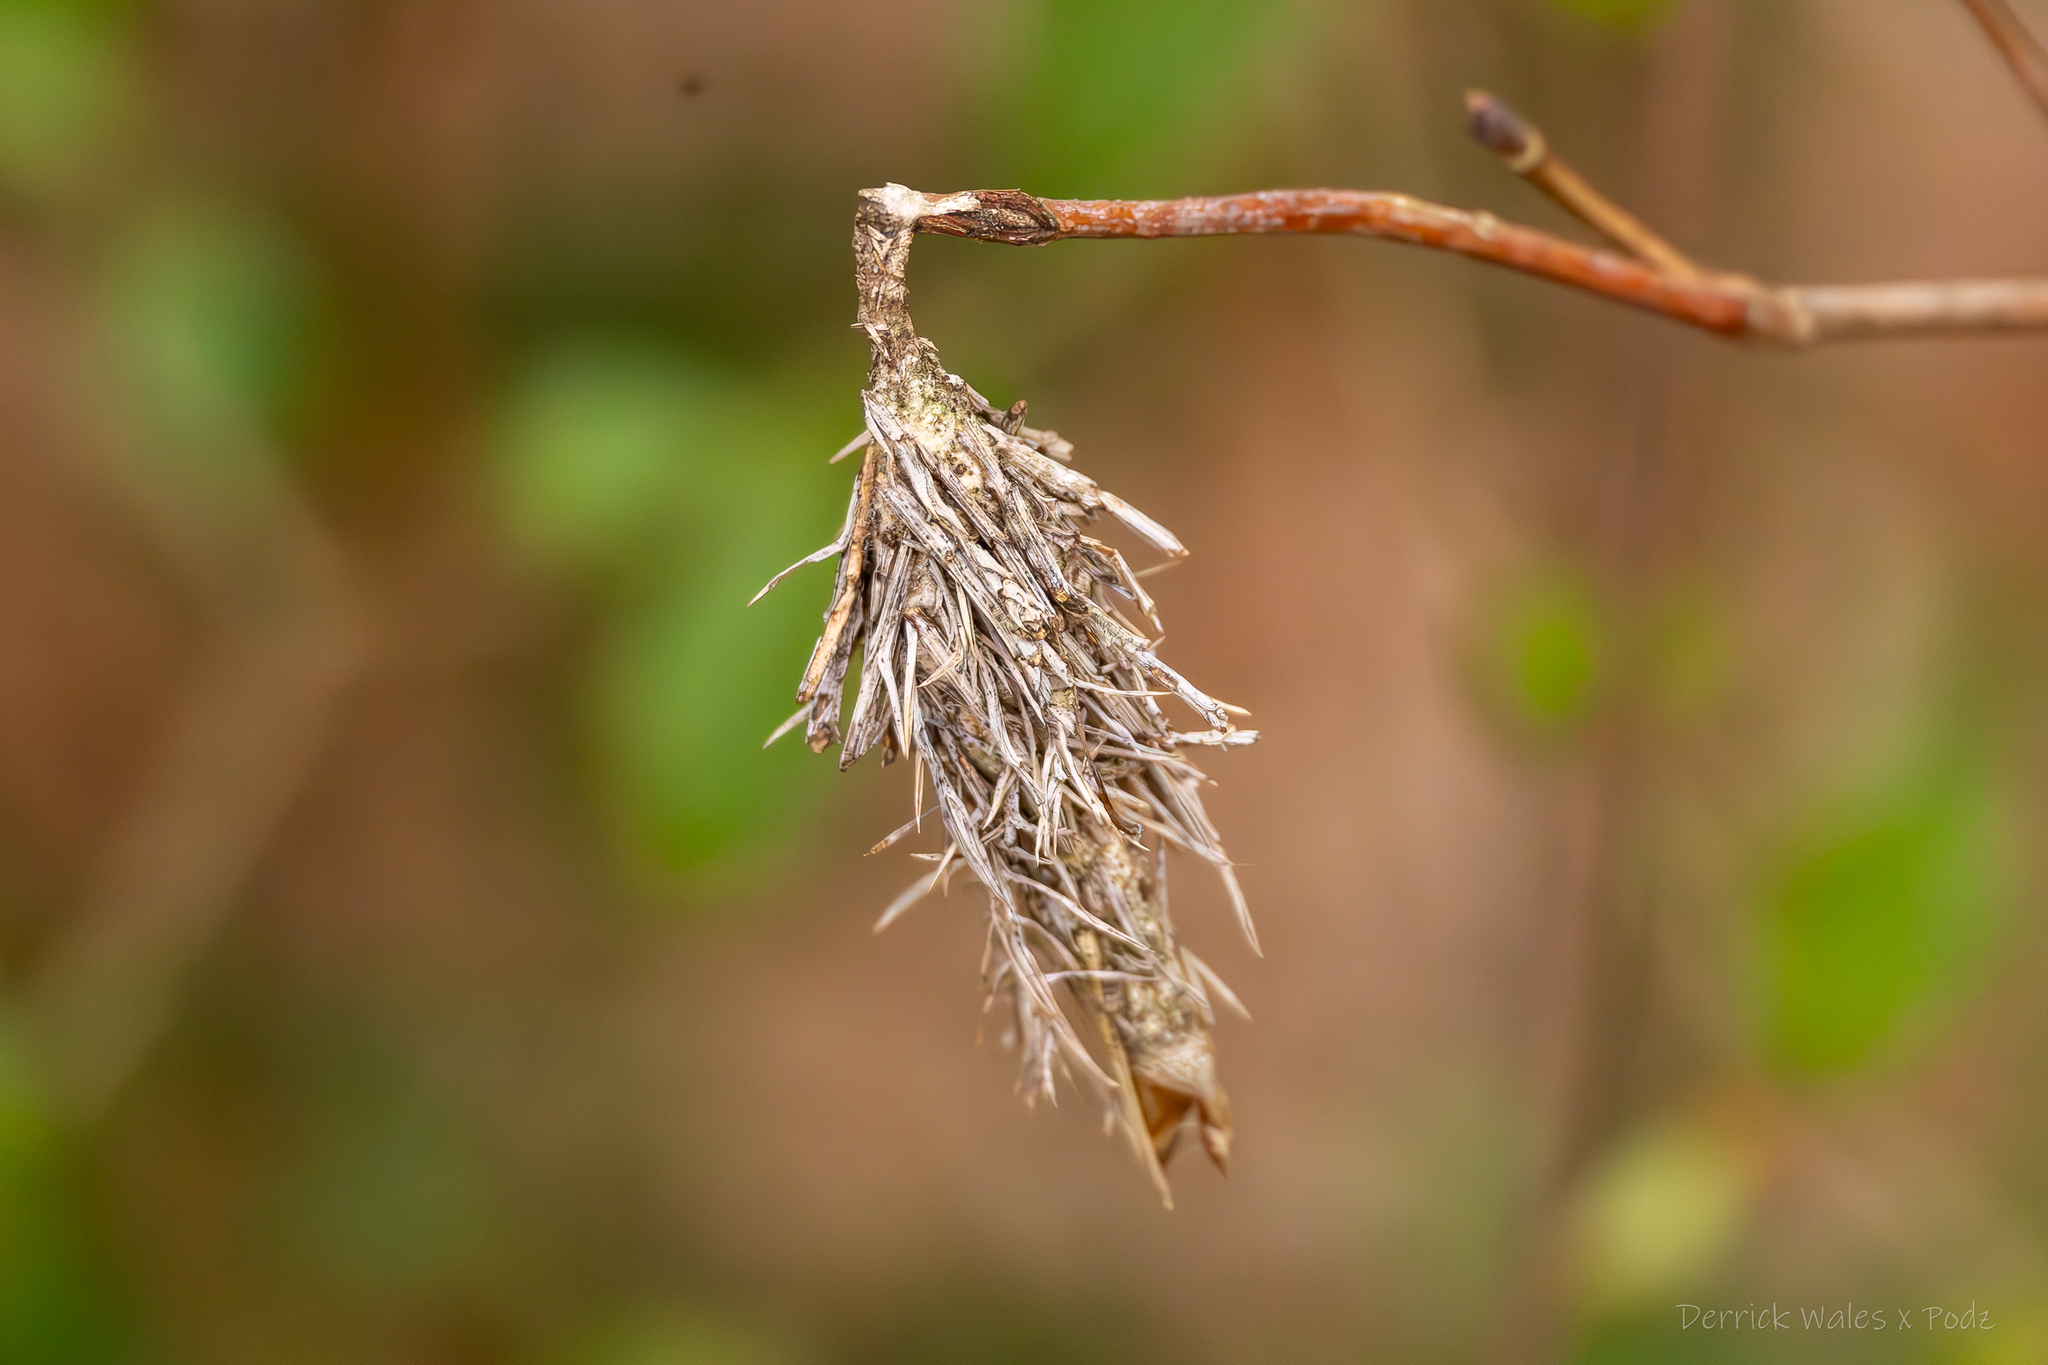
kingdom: Animalia
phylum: Arthropoda
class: Insecta
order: Lepidoptera
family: Psychidae
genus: Thyridopteryx
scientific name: Thyridopteryx ephemeraeformis
